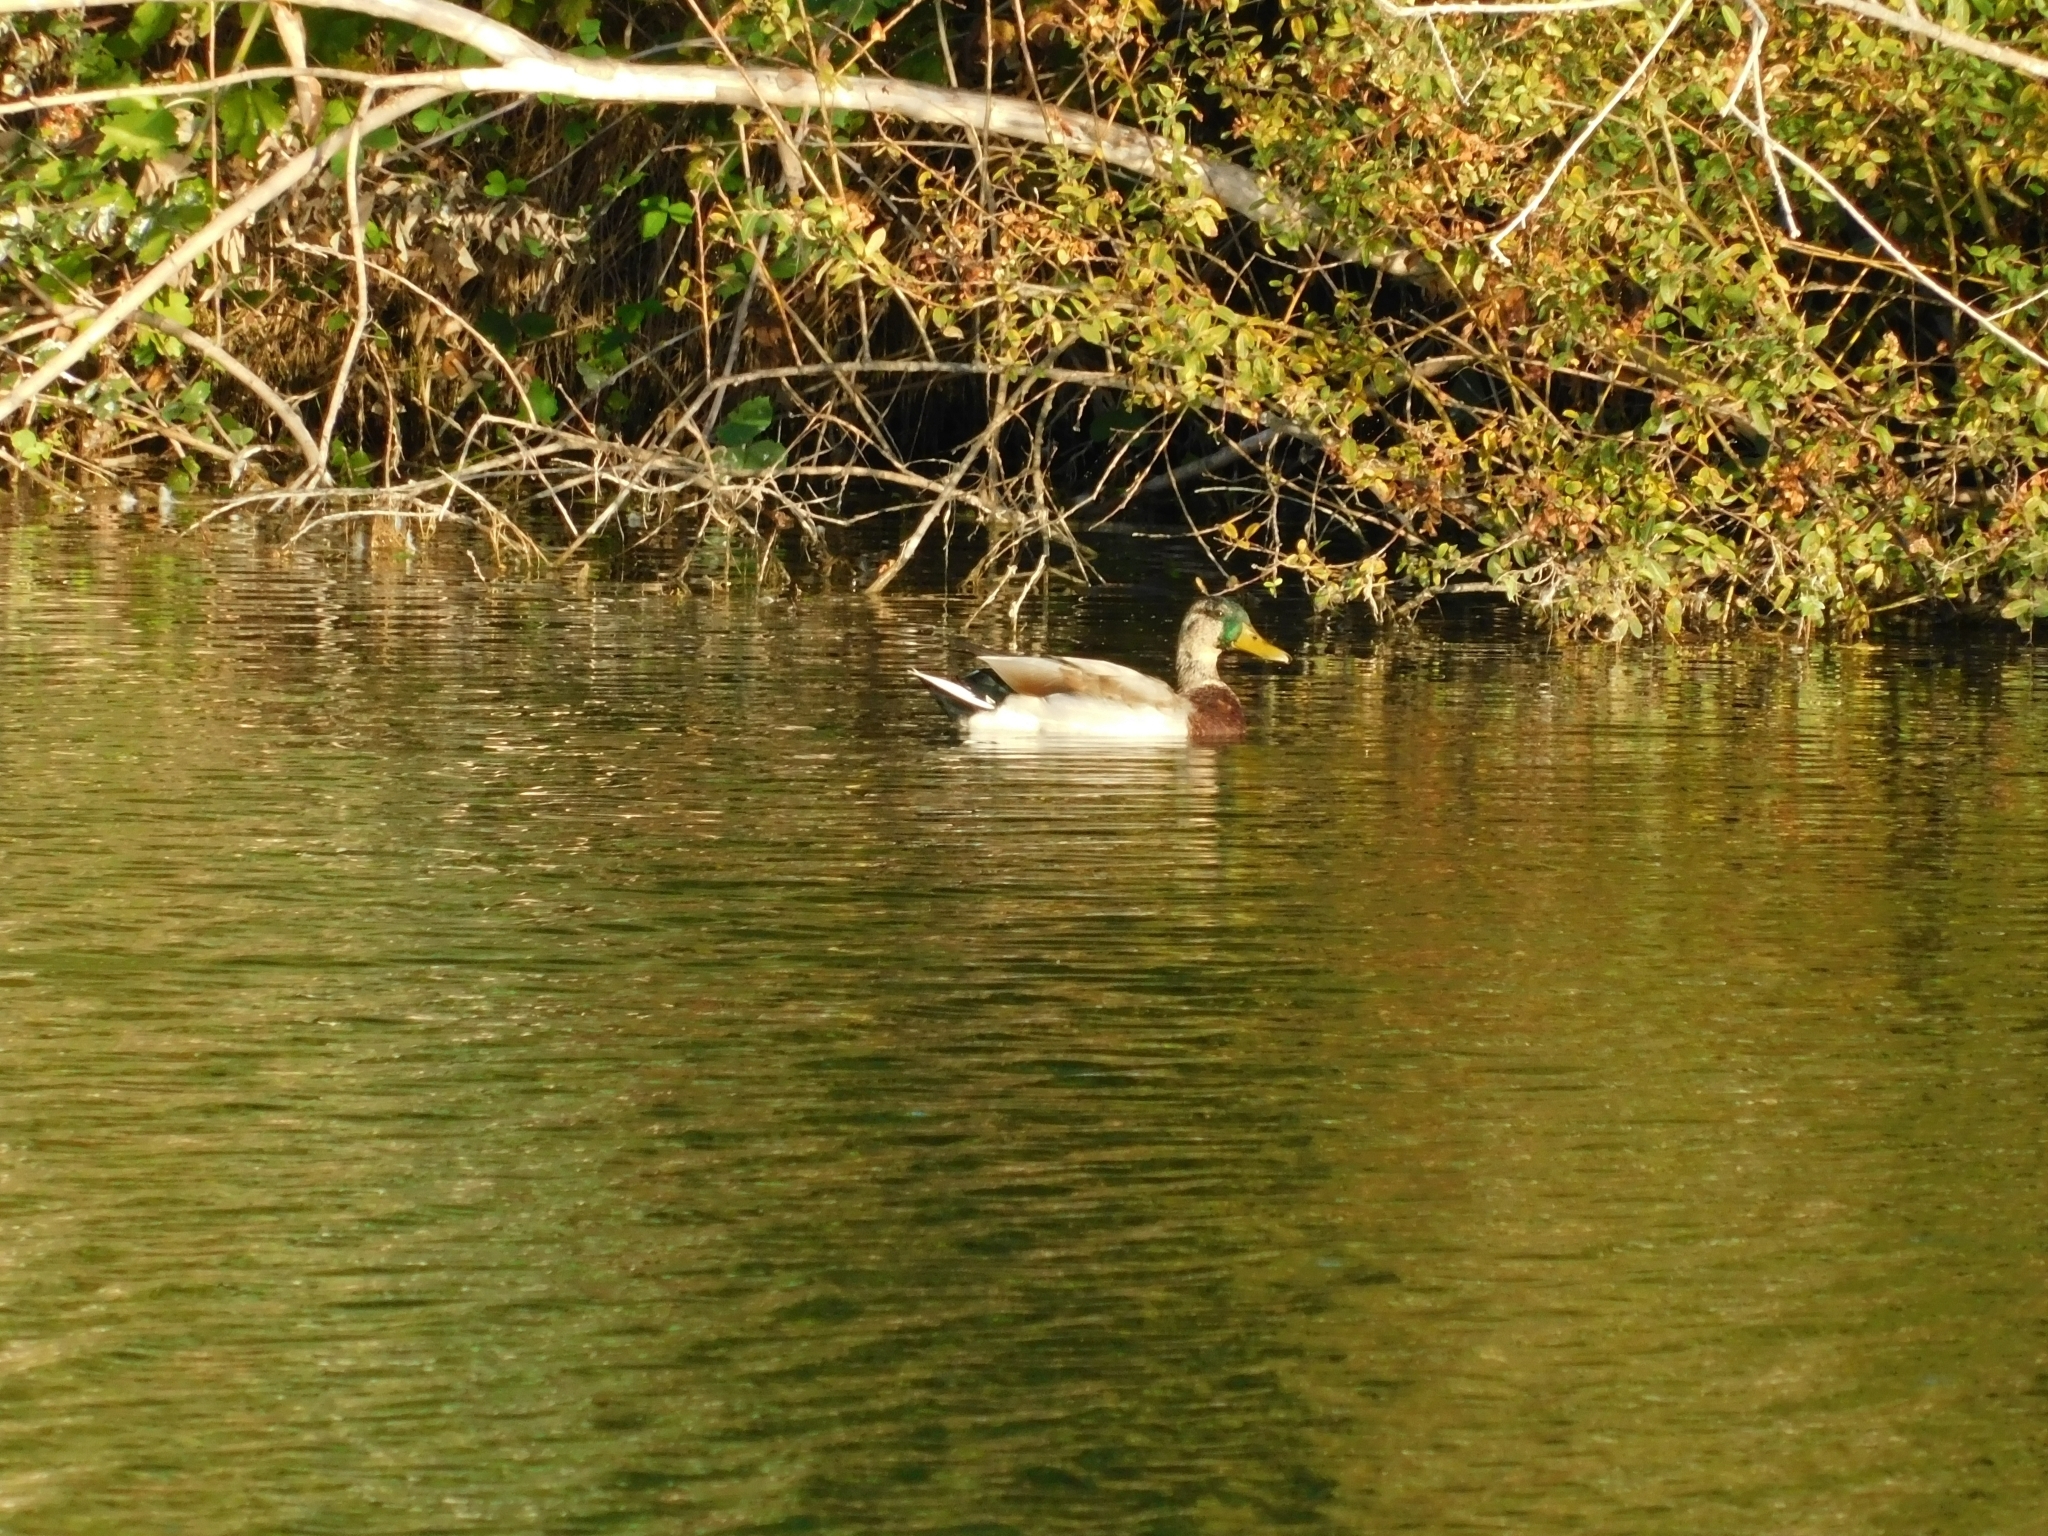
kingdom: Animalia
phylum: Chordata
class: Aves
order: Anseriformes
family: Anatidae
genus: Anas
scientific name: Anas platyrhynchos
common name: Mallard
